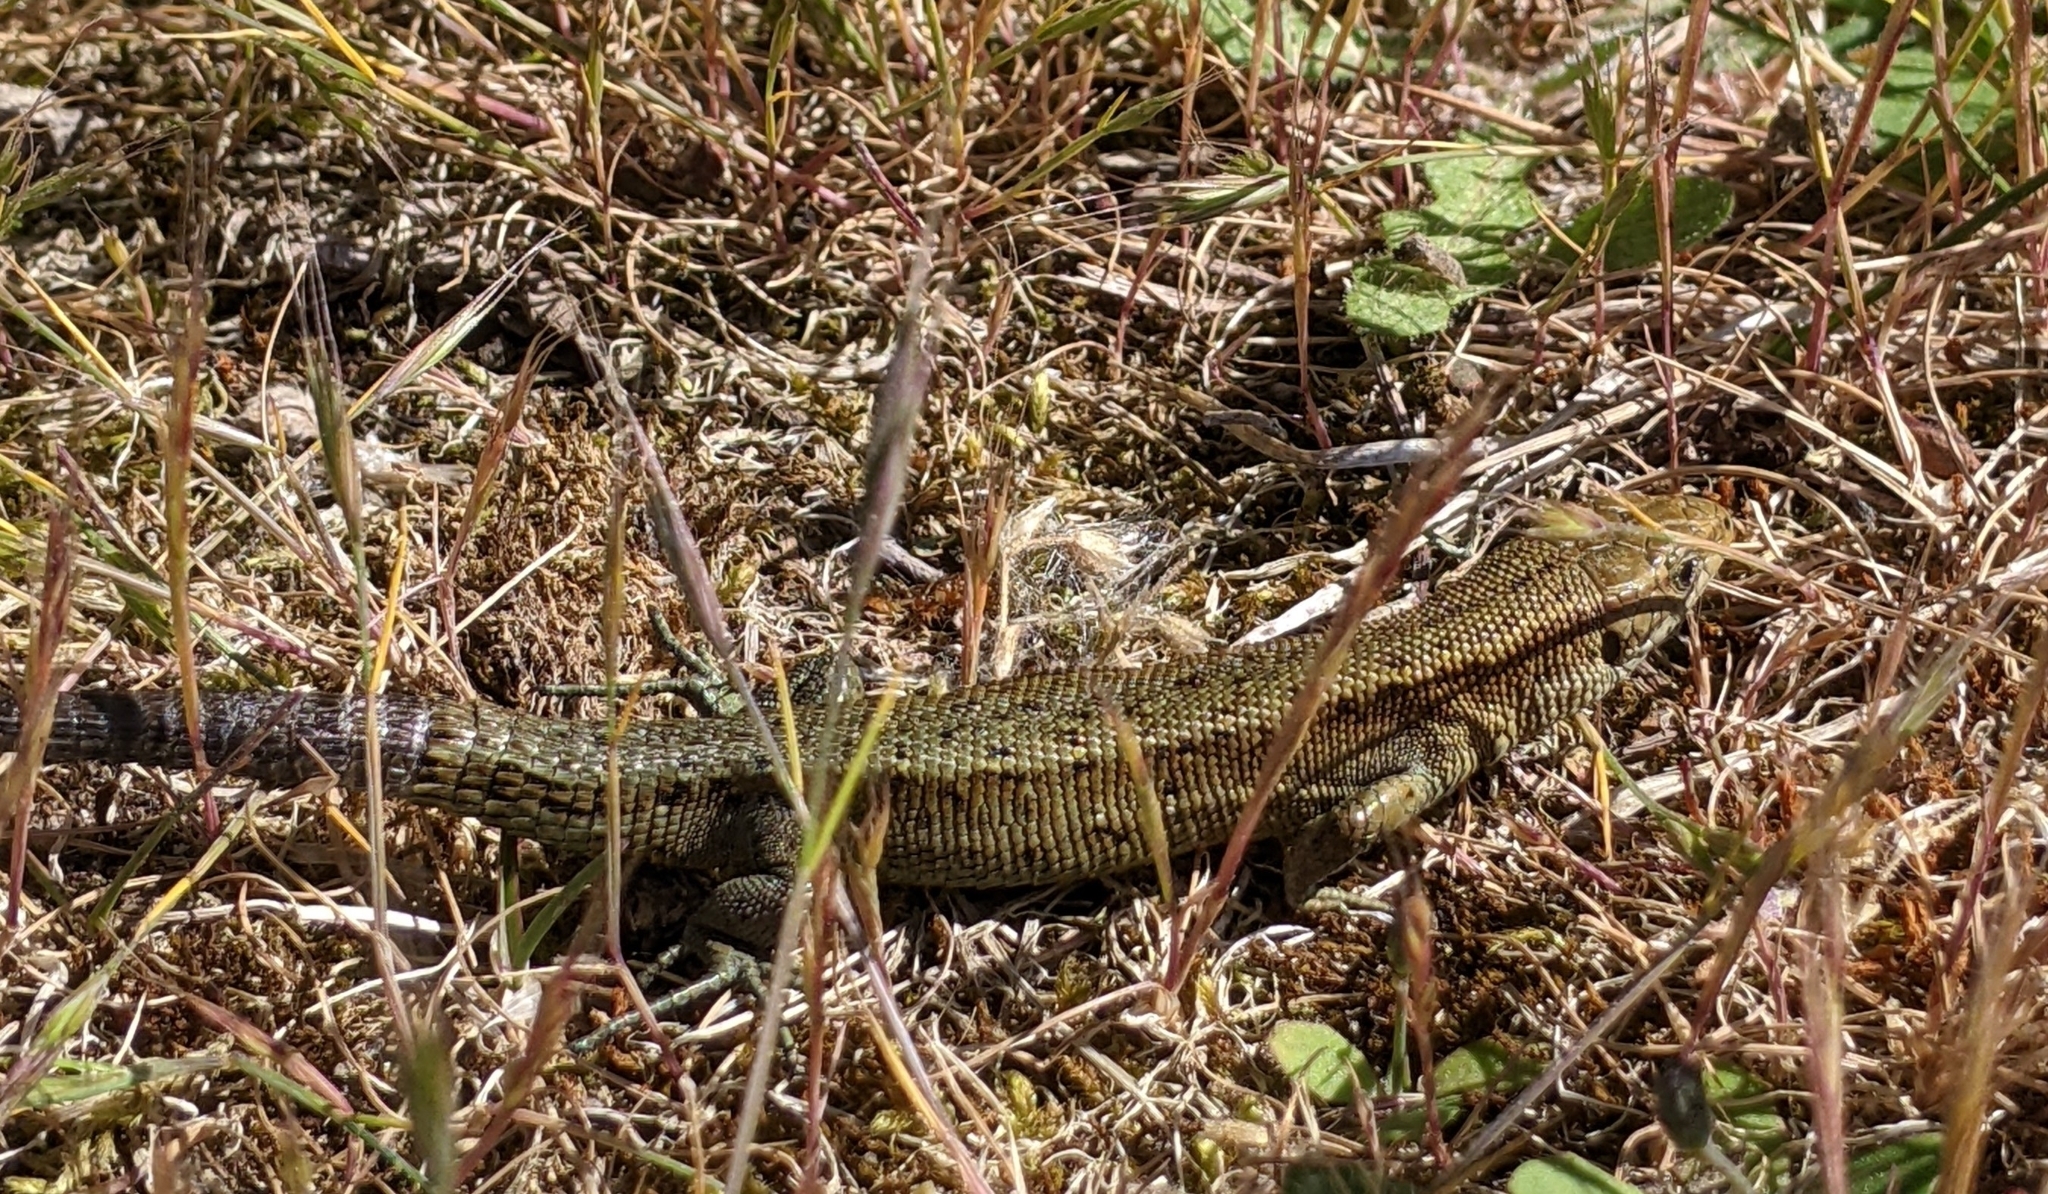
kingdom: Animalia
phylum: Chordata
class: Squamata
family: Lacertidae
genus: Zootoca
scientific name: Zootoca vivipara
